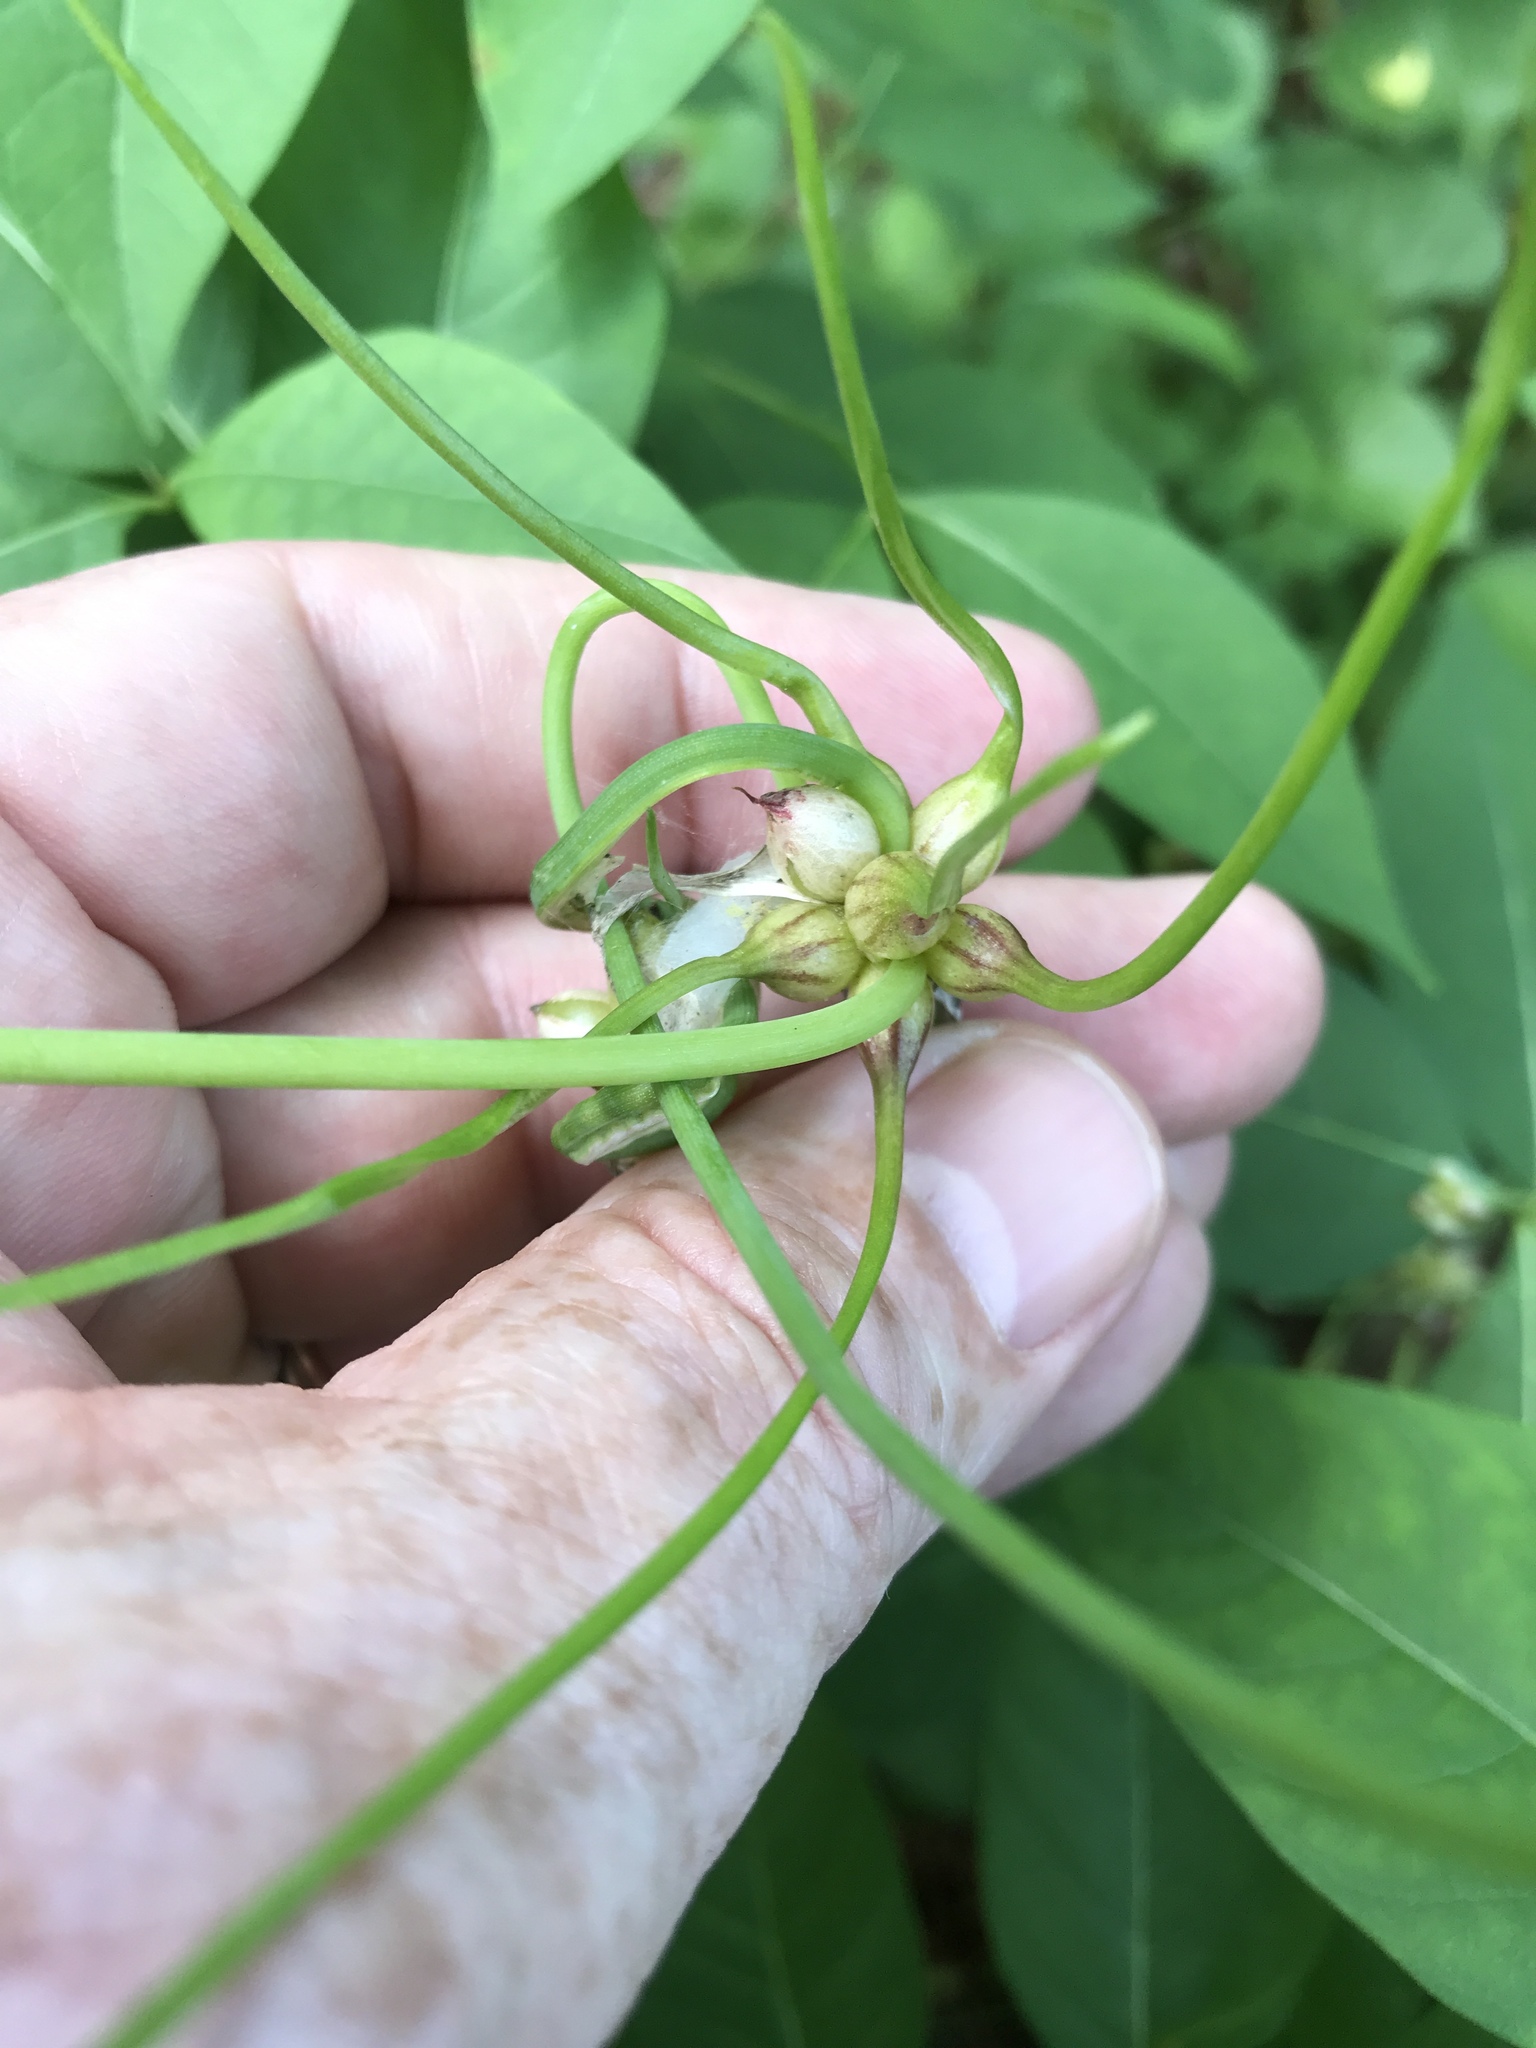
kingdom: Plantae
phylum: Tracheophyta
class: Liliopsida
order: Asparagales
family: Amaryllidaceae
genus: Allium
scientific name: Allium canadense
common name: Meadow garlic
